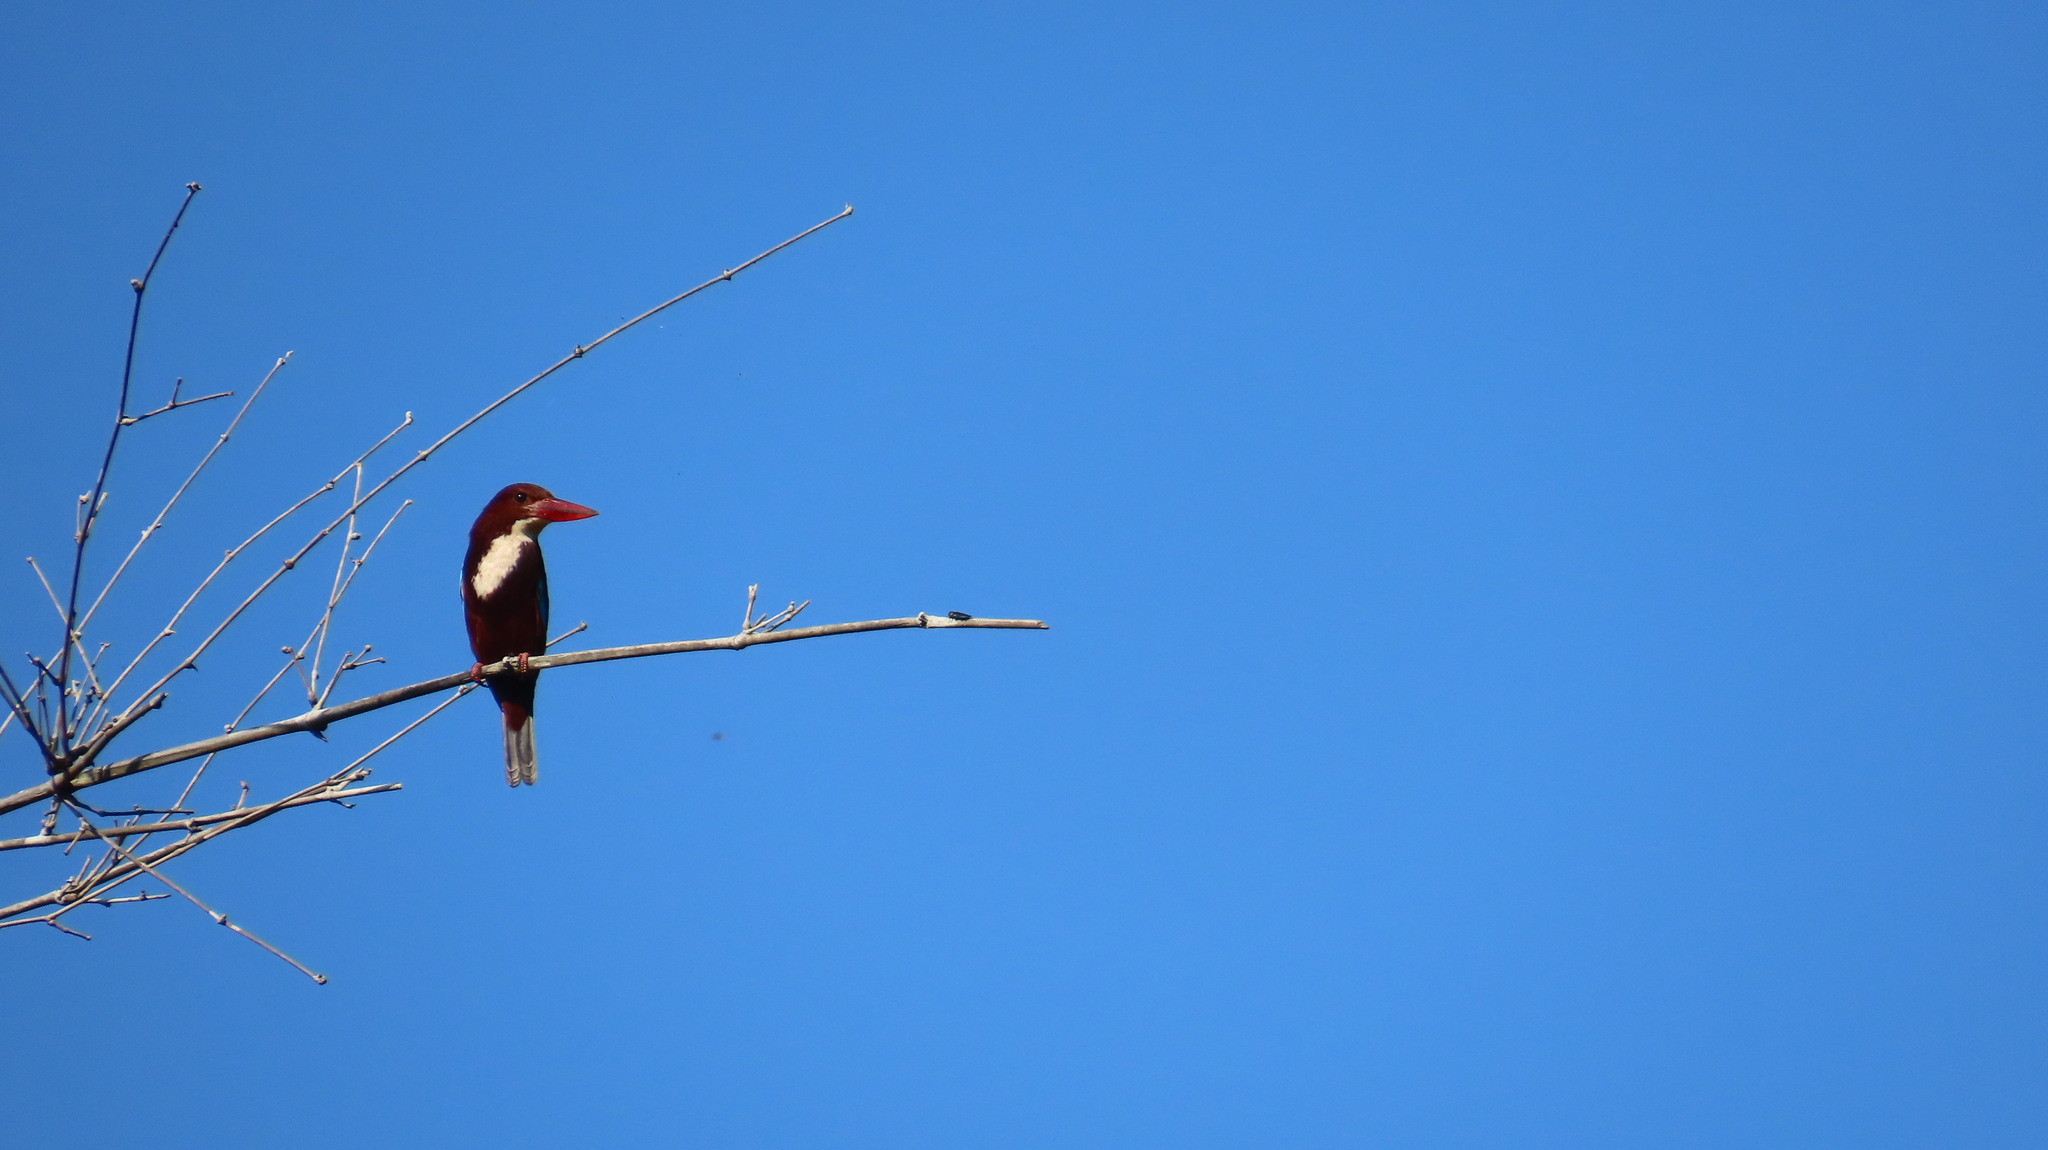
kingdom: Animalia
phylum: Chordata
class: Aves
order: Coraciiformes
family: Alcedinidae
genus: Halcyon
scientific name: Halcyon smyrnensis
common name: White-throated kingfisher
